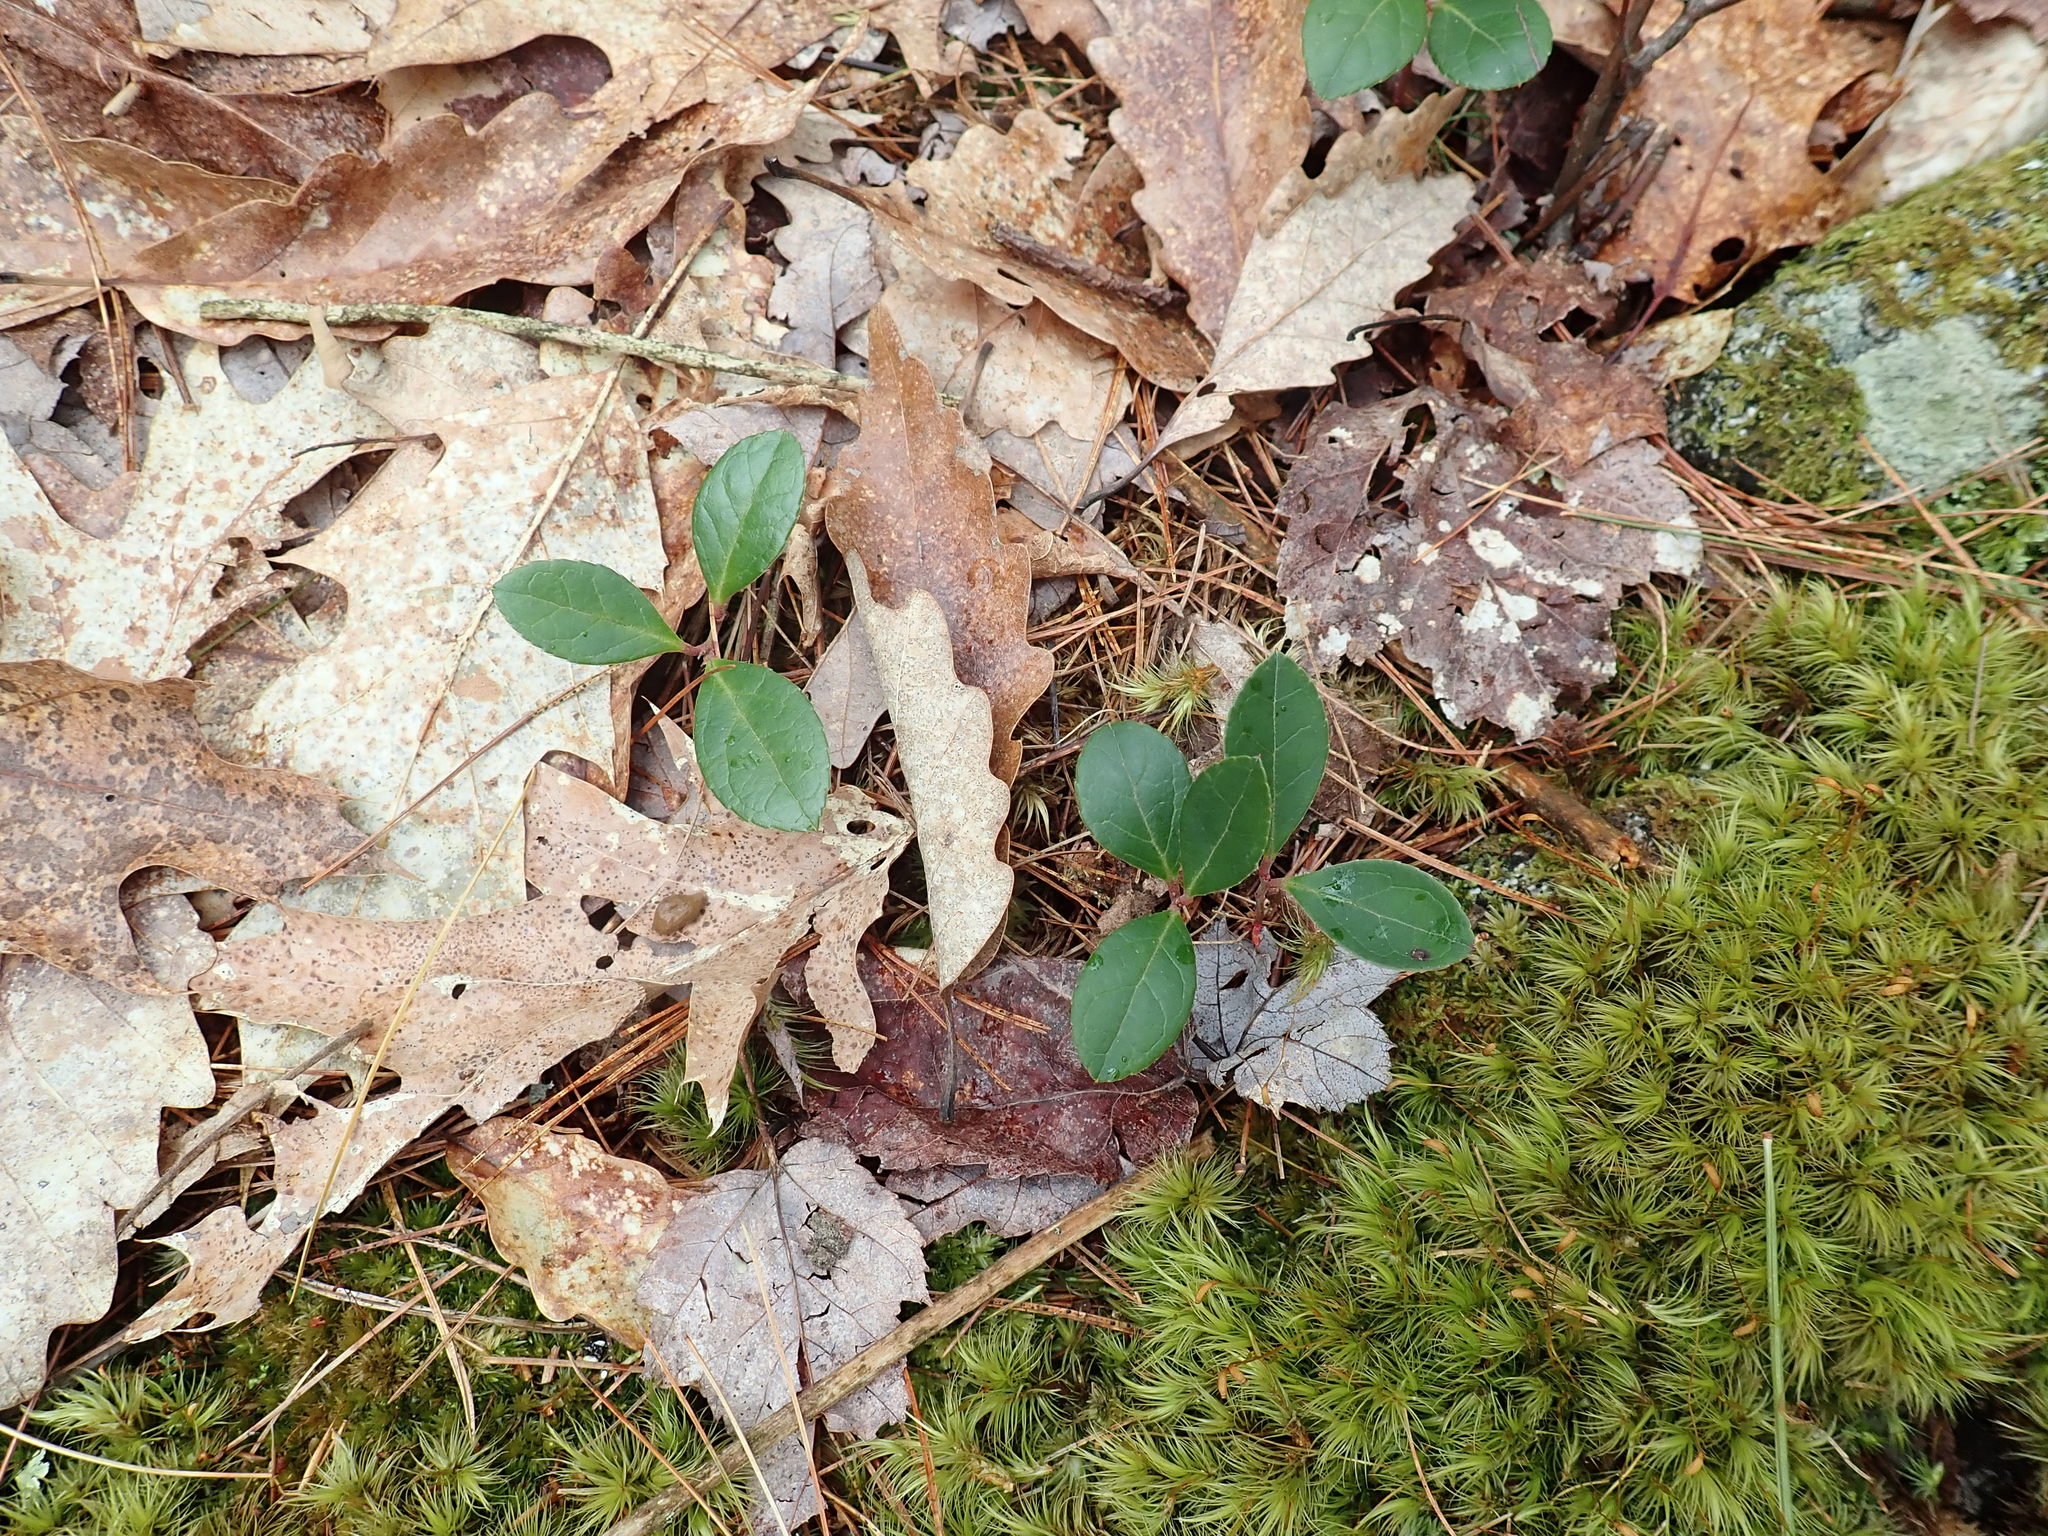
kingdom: Plantae
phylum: Tracheophyta
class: Magnoliopsida
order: Ericales
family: Ericaceae
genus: Gaultheria
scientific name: Gaultheria procumbens
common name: Checkerberry
